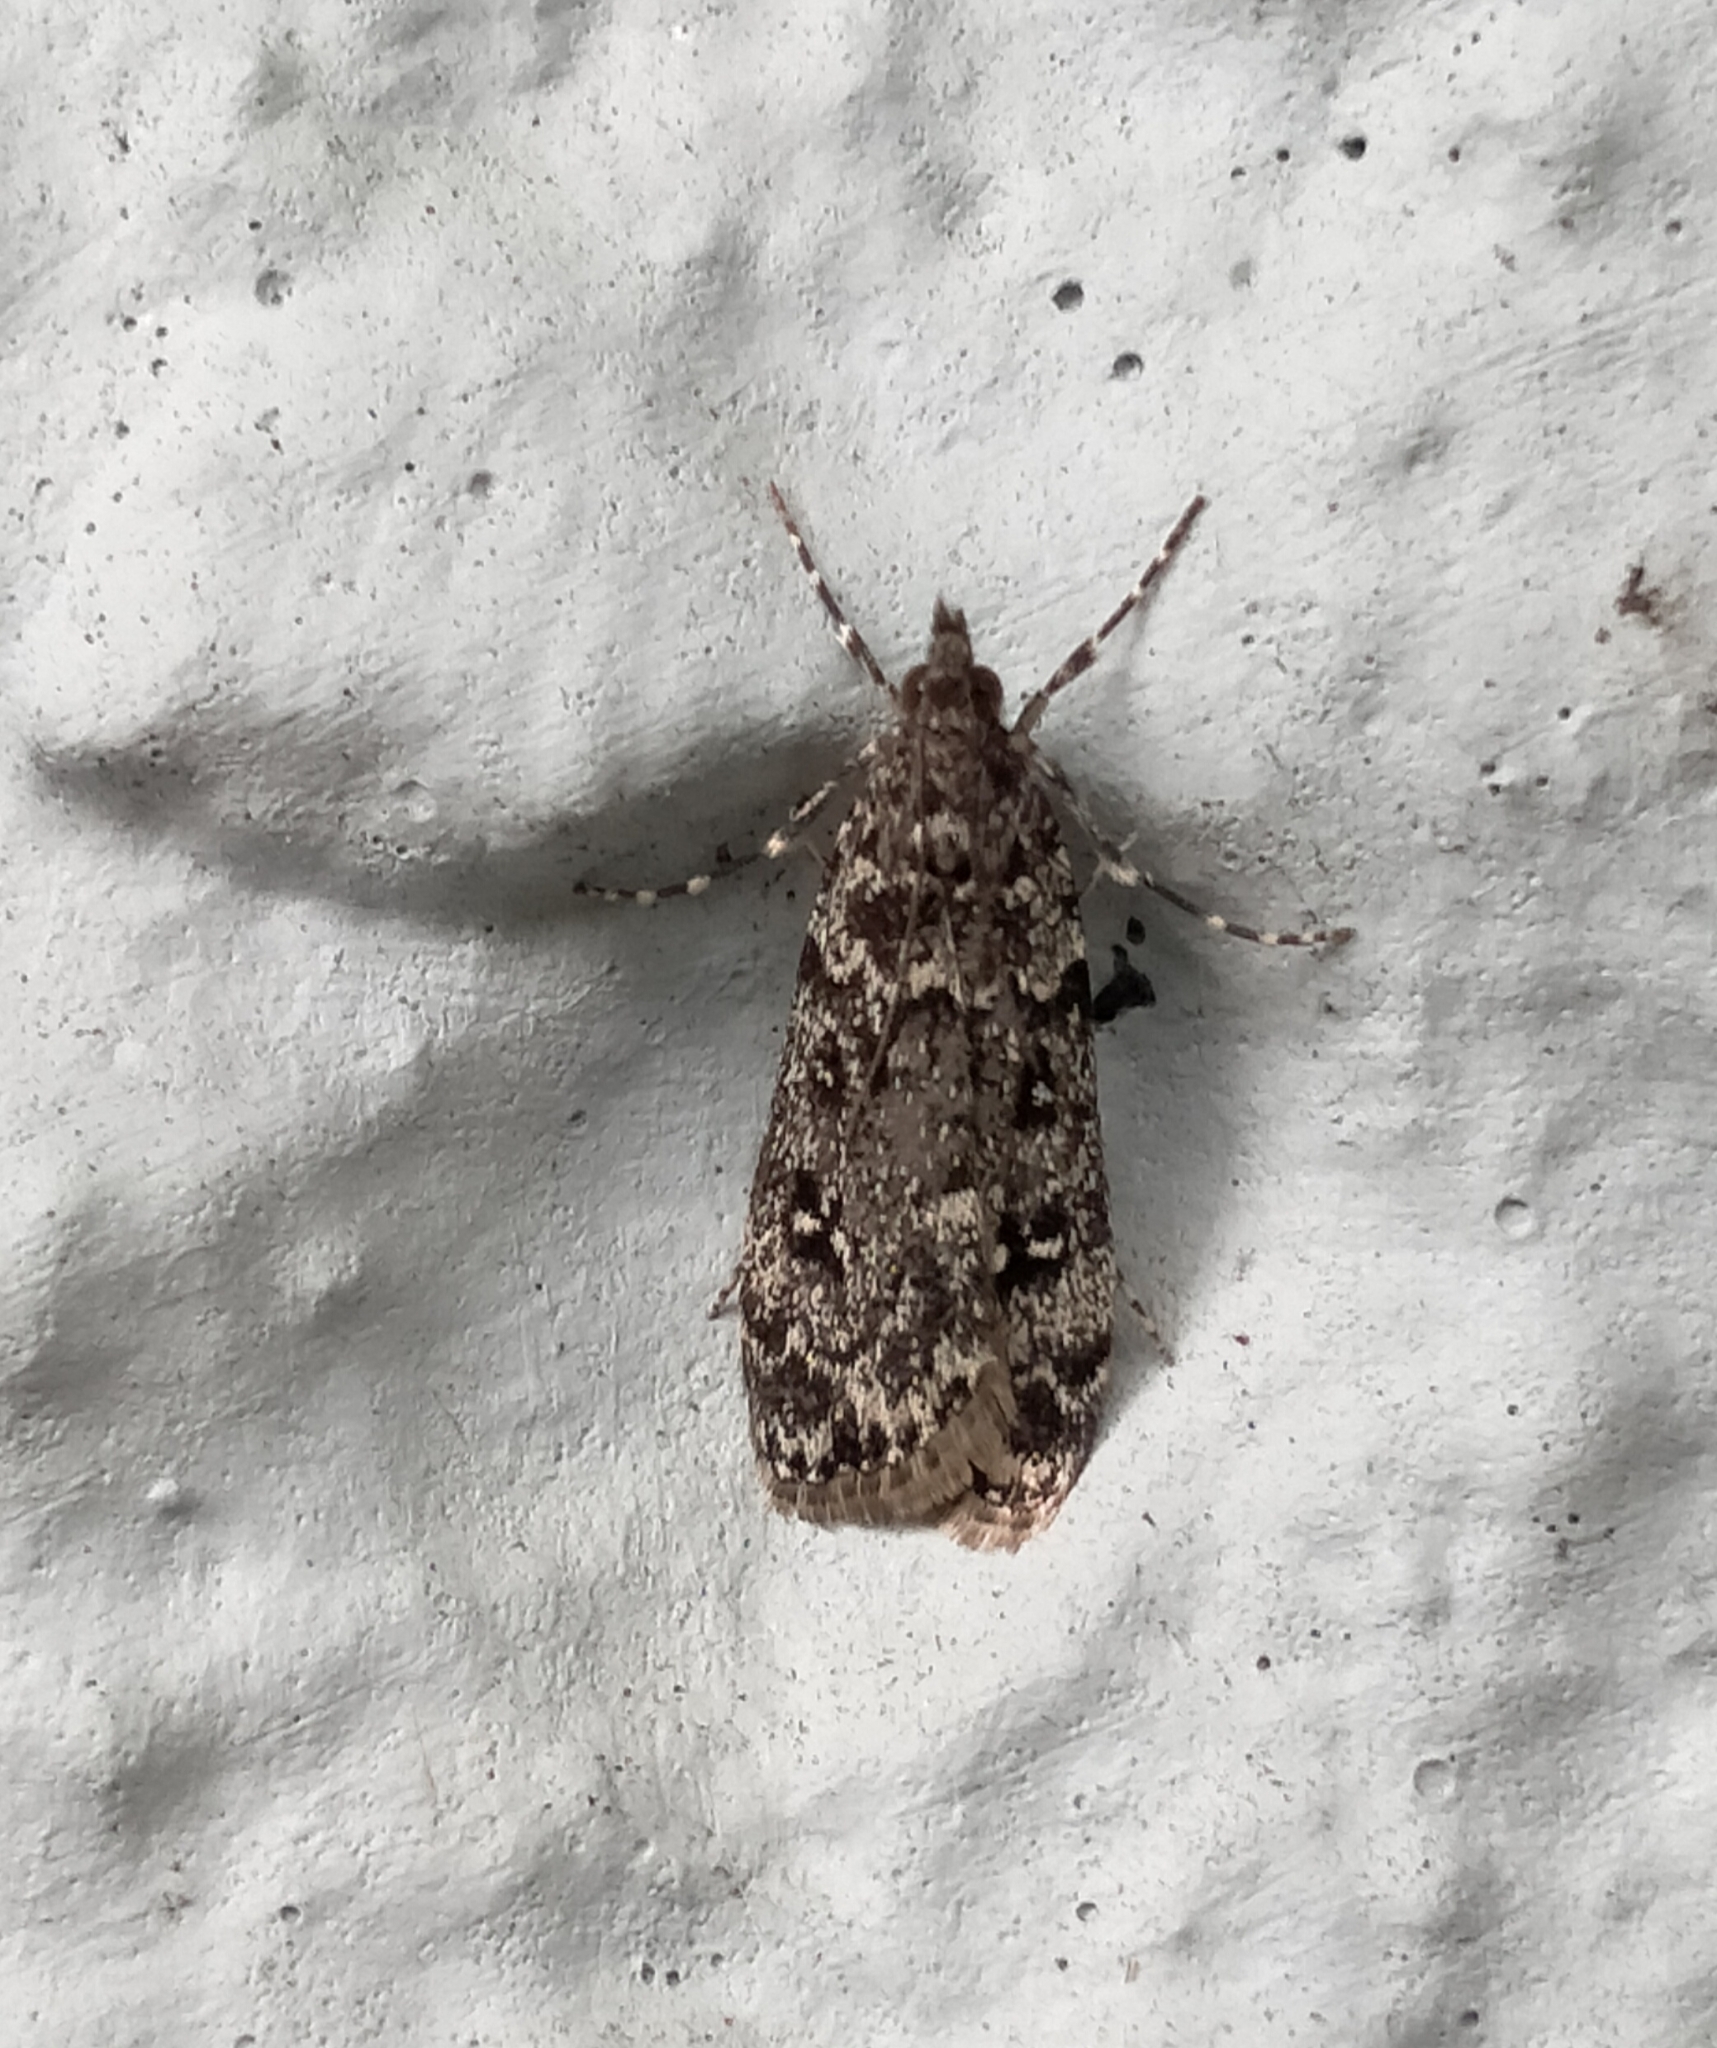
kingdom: Animalia
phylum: Arthropoda
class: Insecta
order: Lepidoptera
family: Crambidae
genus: Eudonia
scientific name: Eudonia philerga
